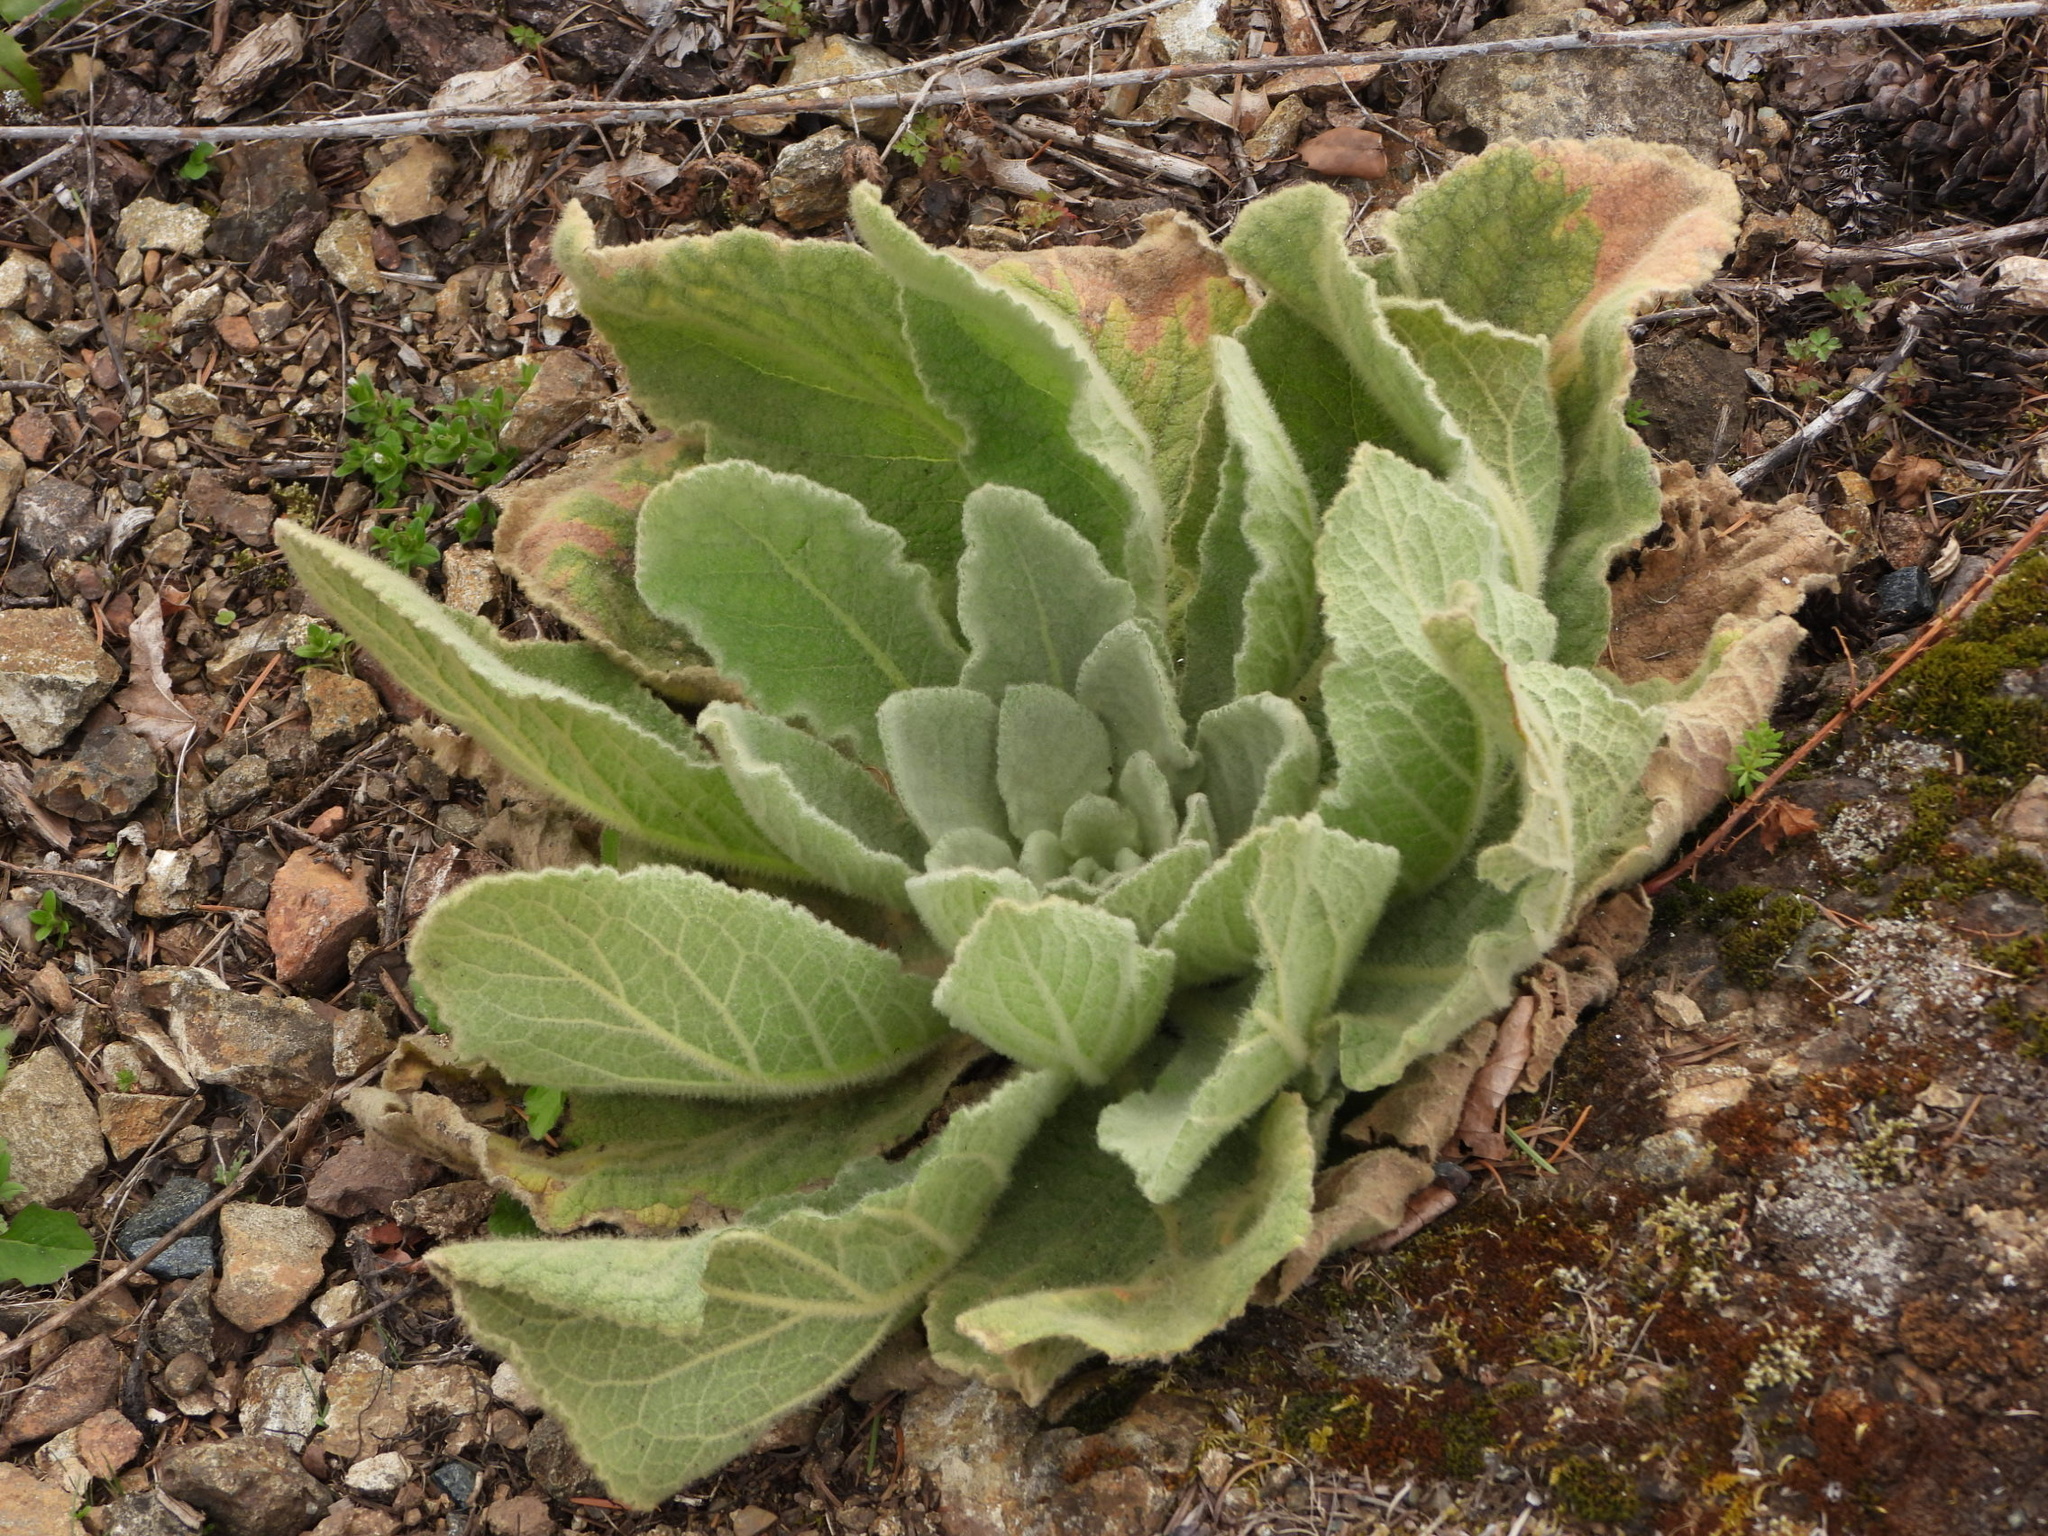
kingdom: Plantae
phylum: Tracheophyta
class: Magnoliopsida
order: Lamiales
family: Scrophulariaceae
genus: Verbascum
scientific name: Verbascum thapsus
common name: Common mullein
